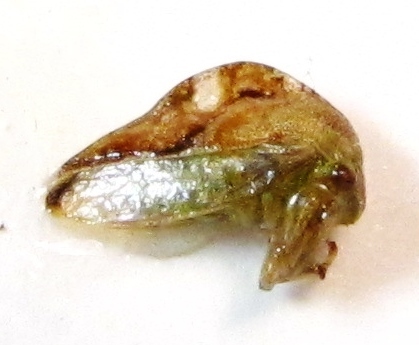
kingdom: Animalia
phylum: Arthropoda
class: Insecta
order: Hemiptera
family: Membracidae
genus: Cyrtolobus
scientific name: Cyrtolobus fenestrata
